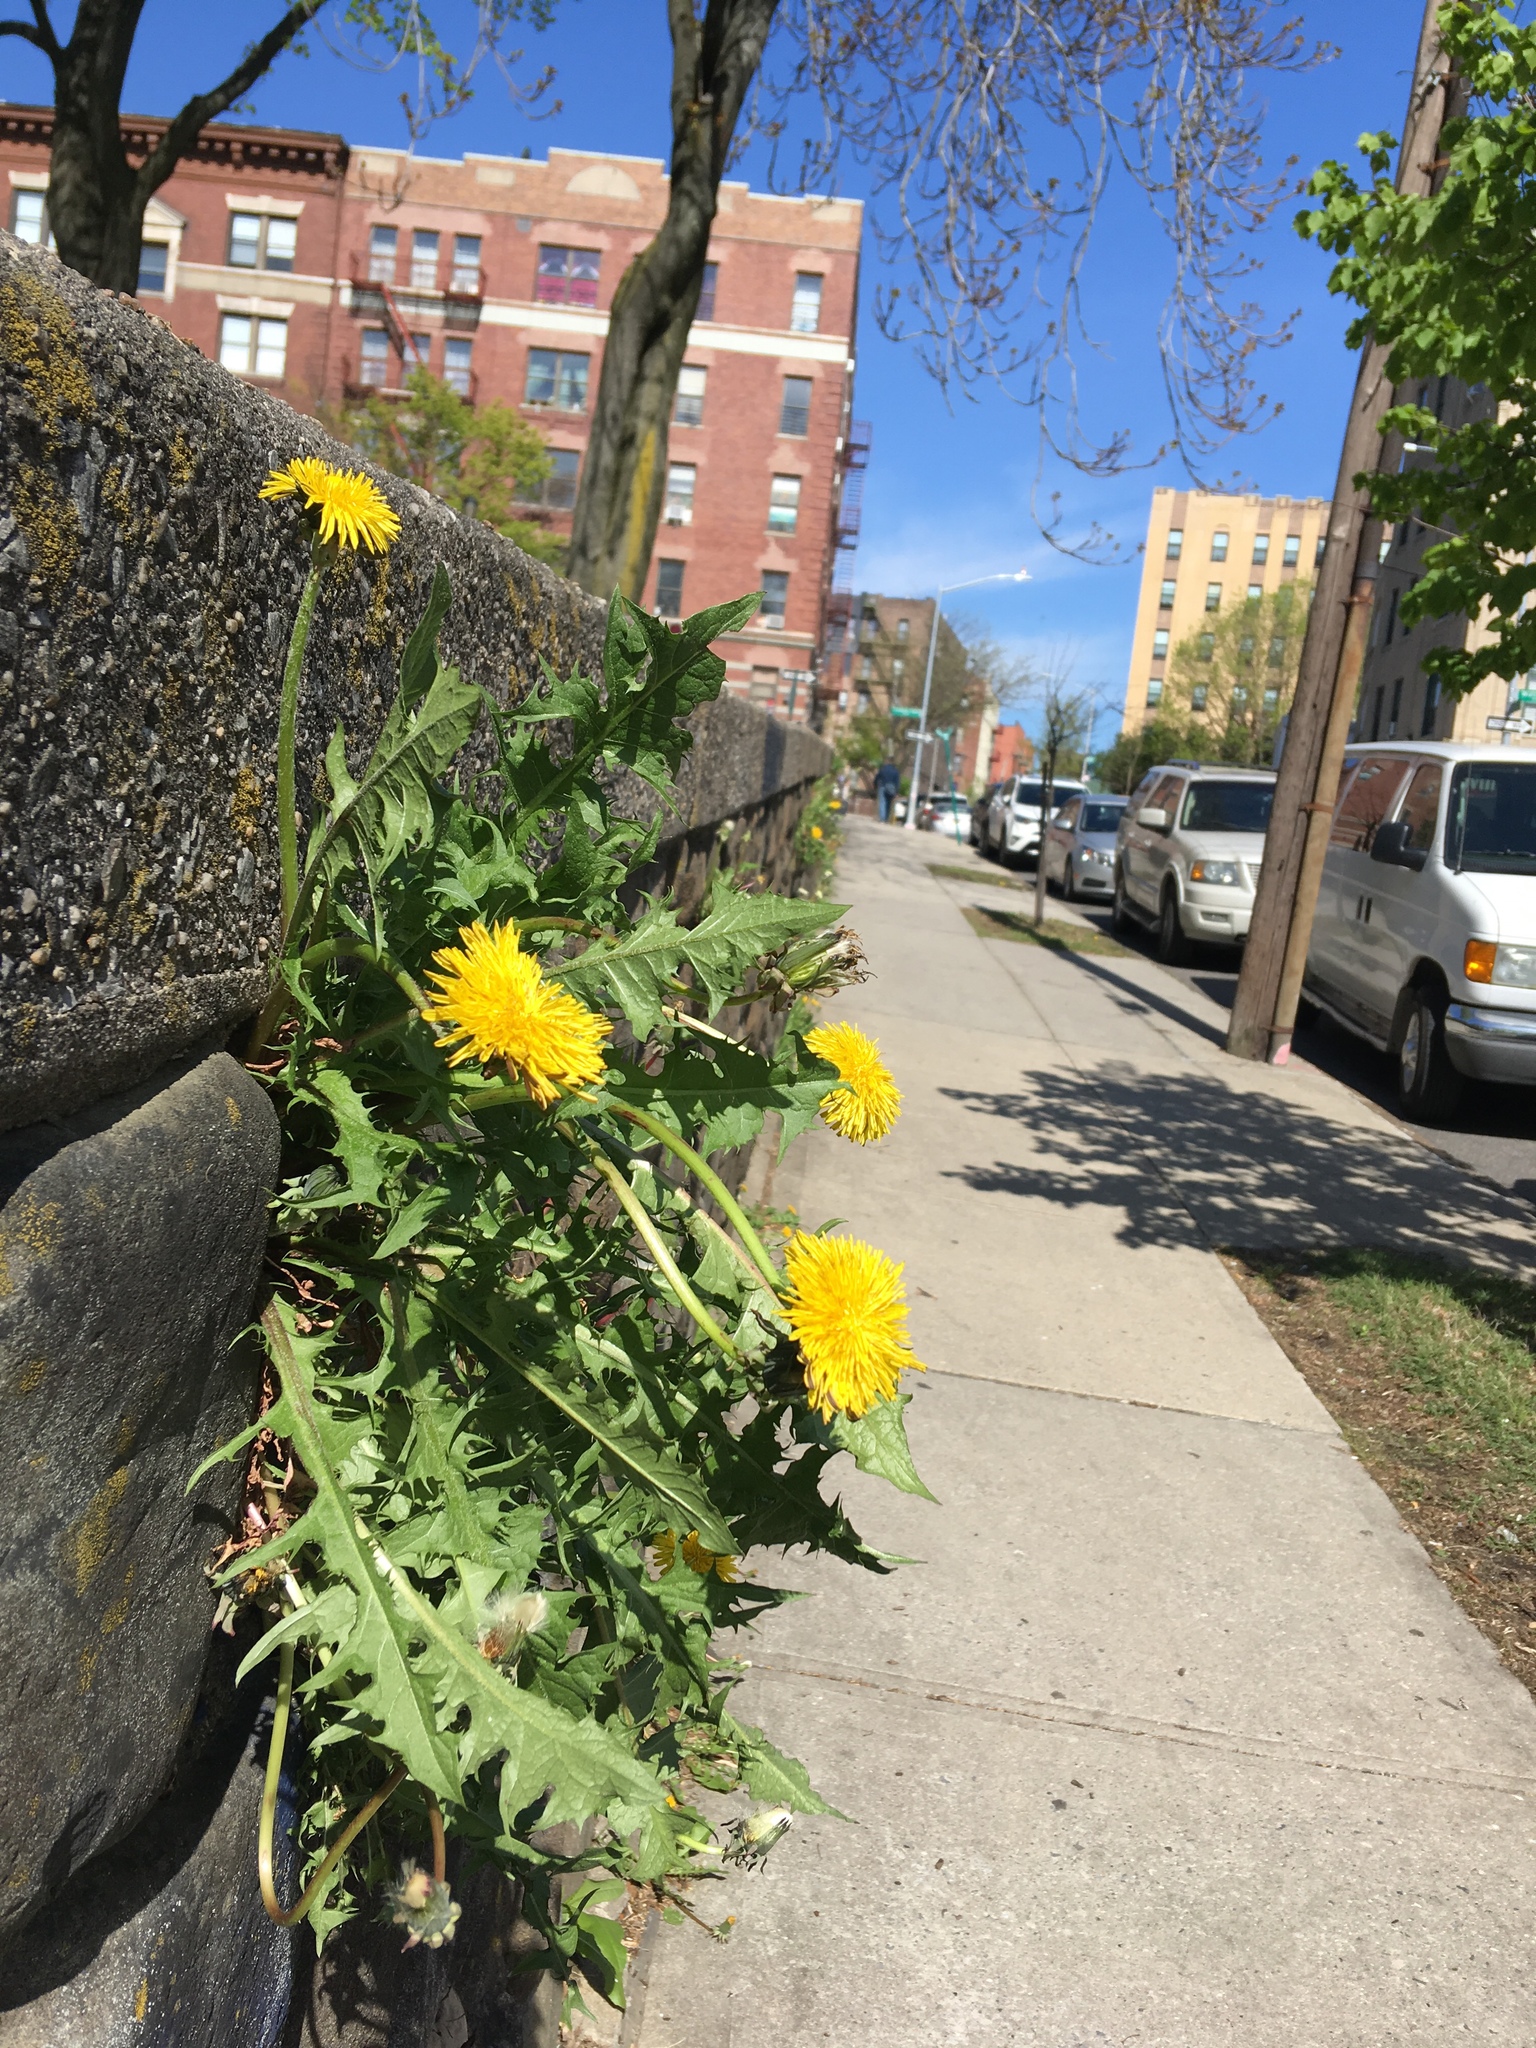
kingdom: Plantae
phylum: Tracheophyta
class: Magnoliopsida
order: Asterales
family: Asteraceae
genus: Taraxacum
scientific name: Taraxacum officinale
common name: Common dandelion
